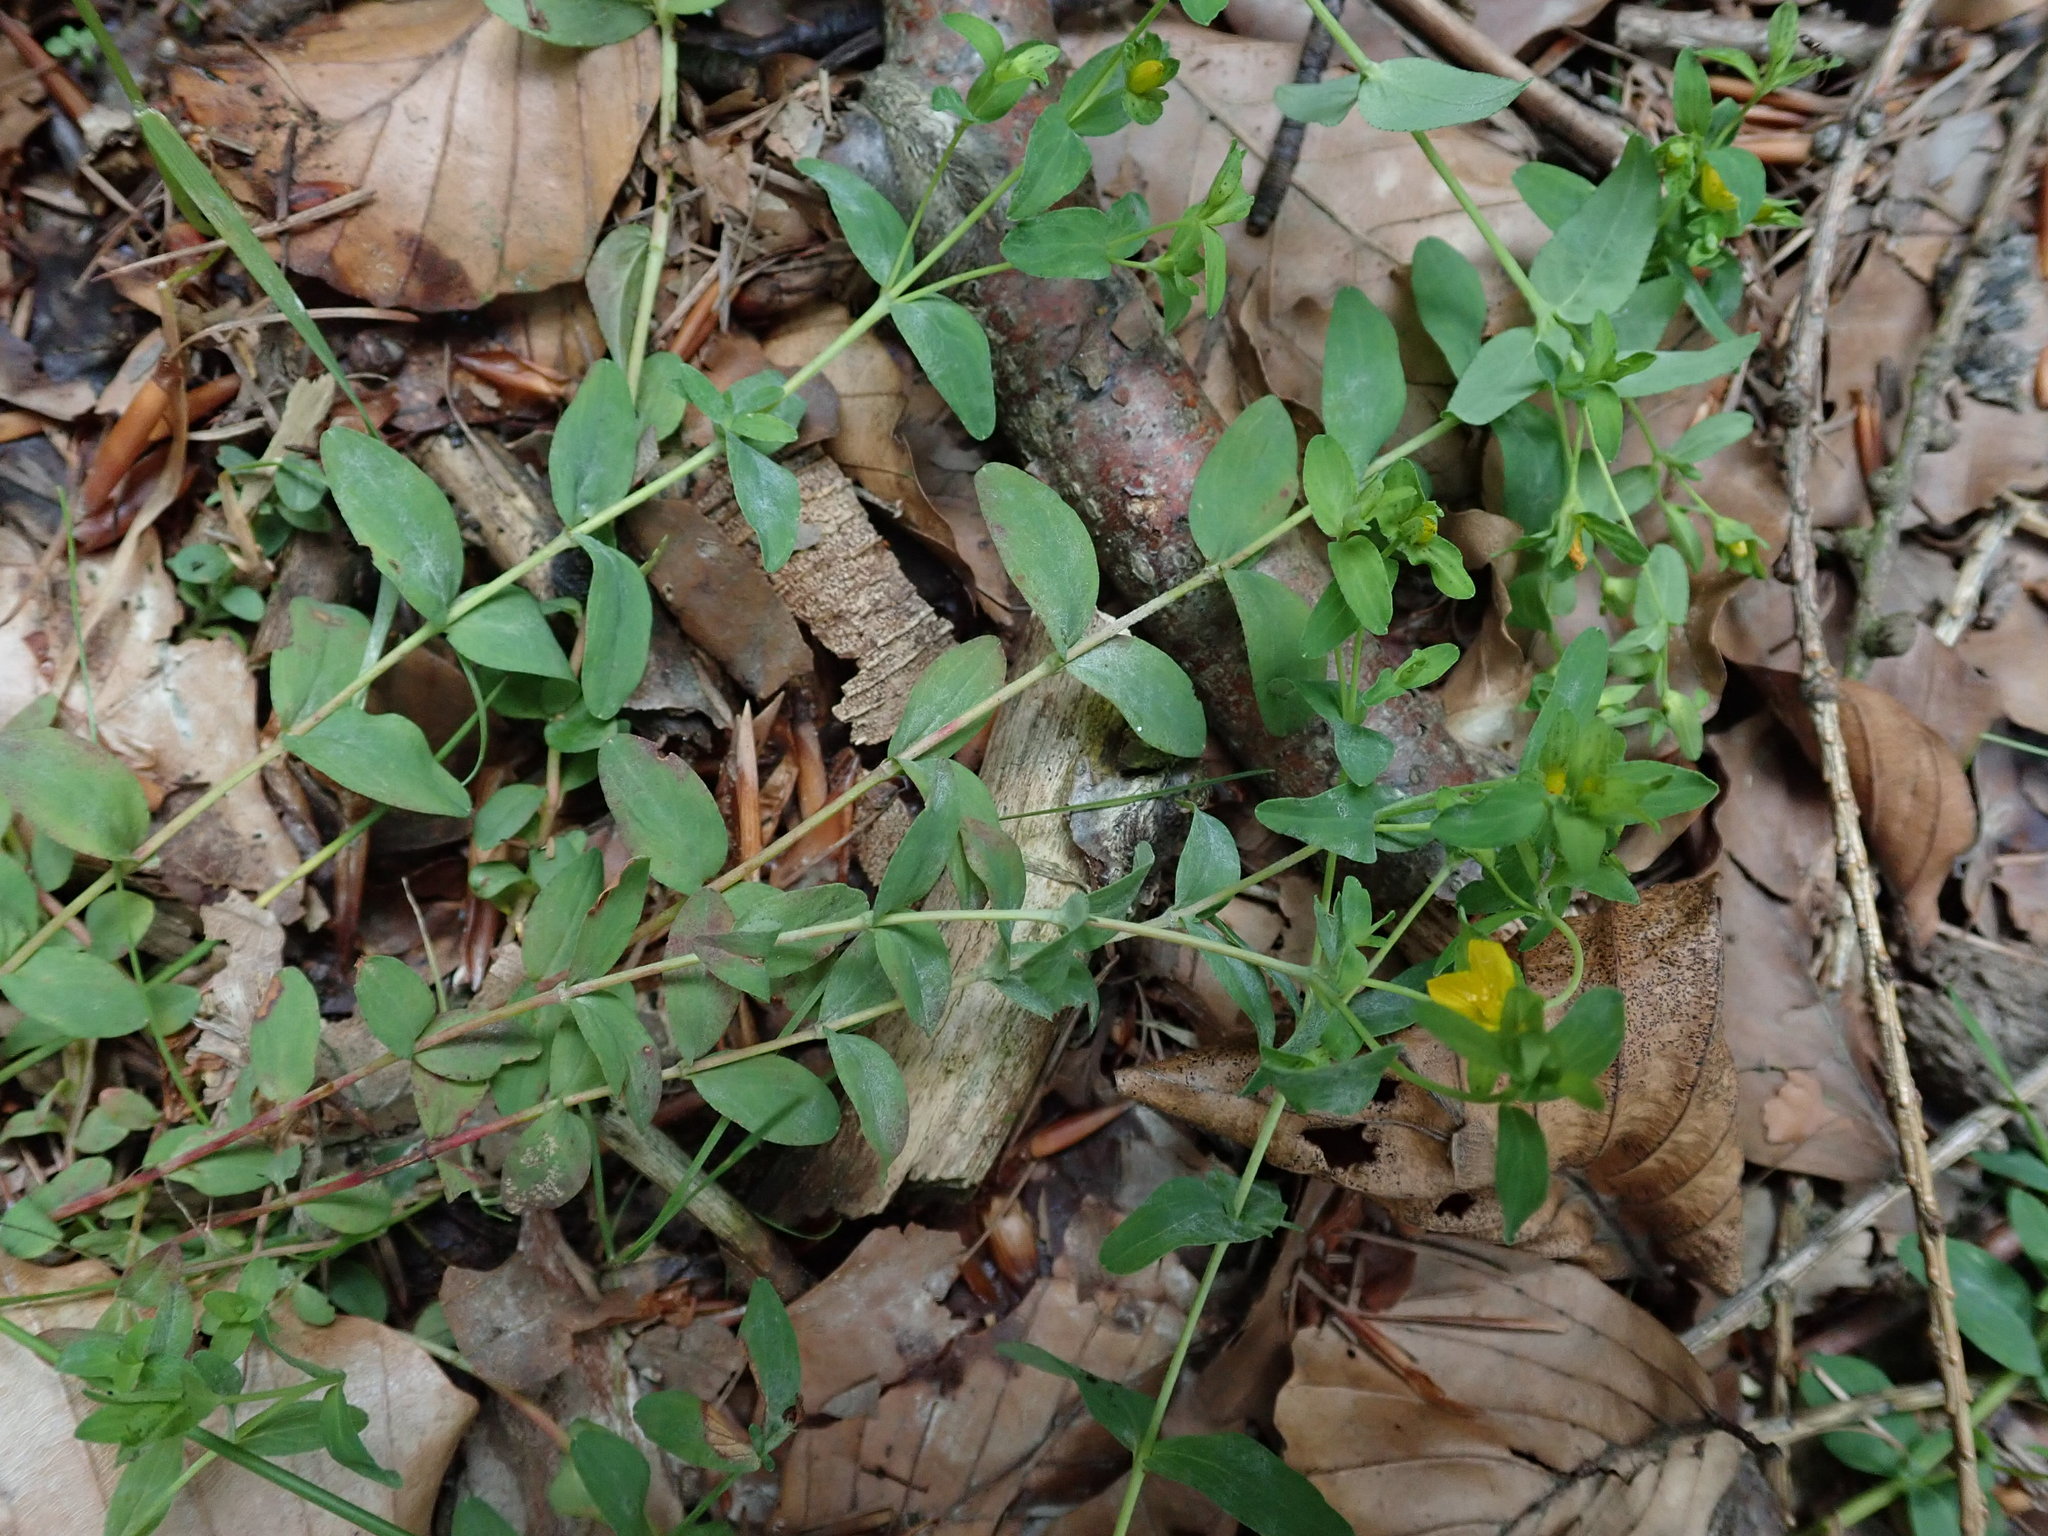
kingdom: Plantae
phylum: Tracheophyta
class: Magnoliopsida
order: Malpighiales
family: Hypericaceae
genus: Hypericum
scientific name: Hypericum humifusum
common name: Trailing st. john's-wort
